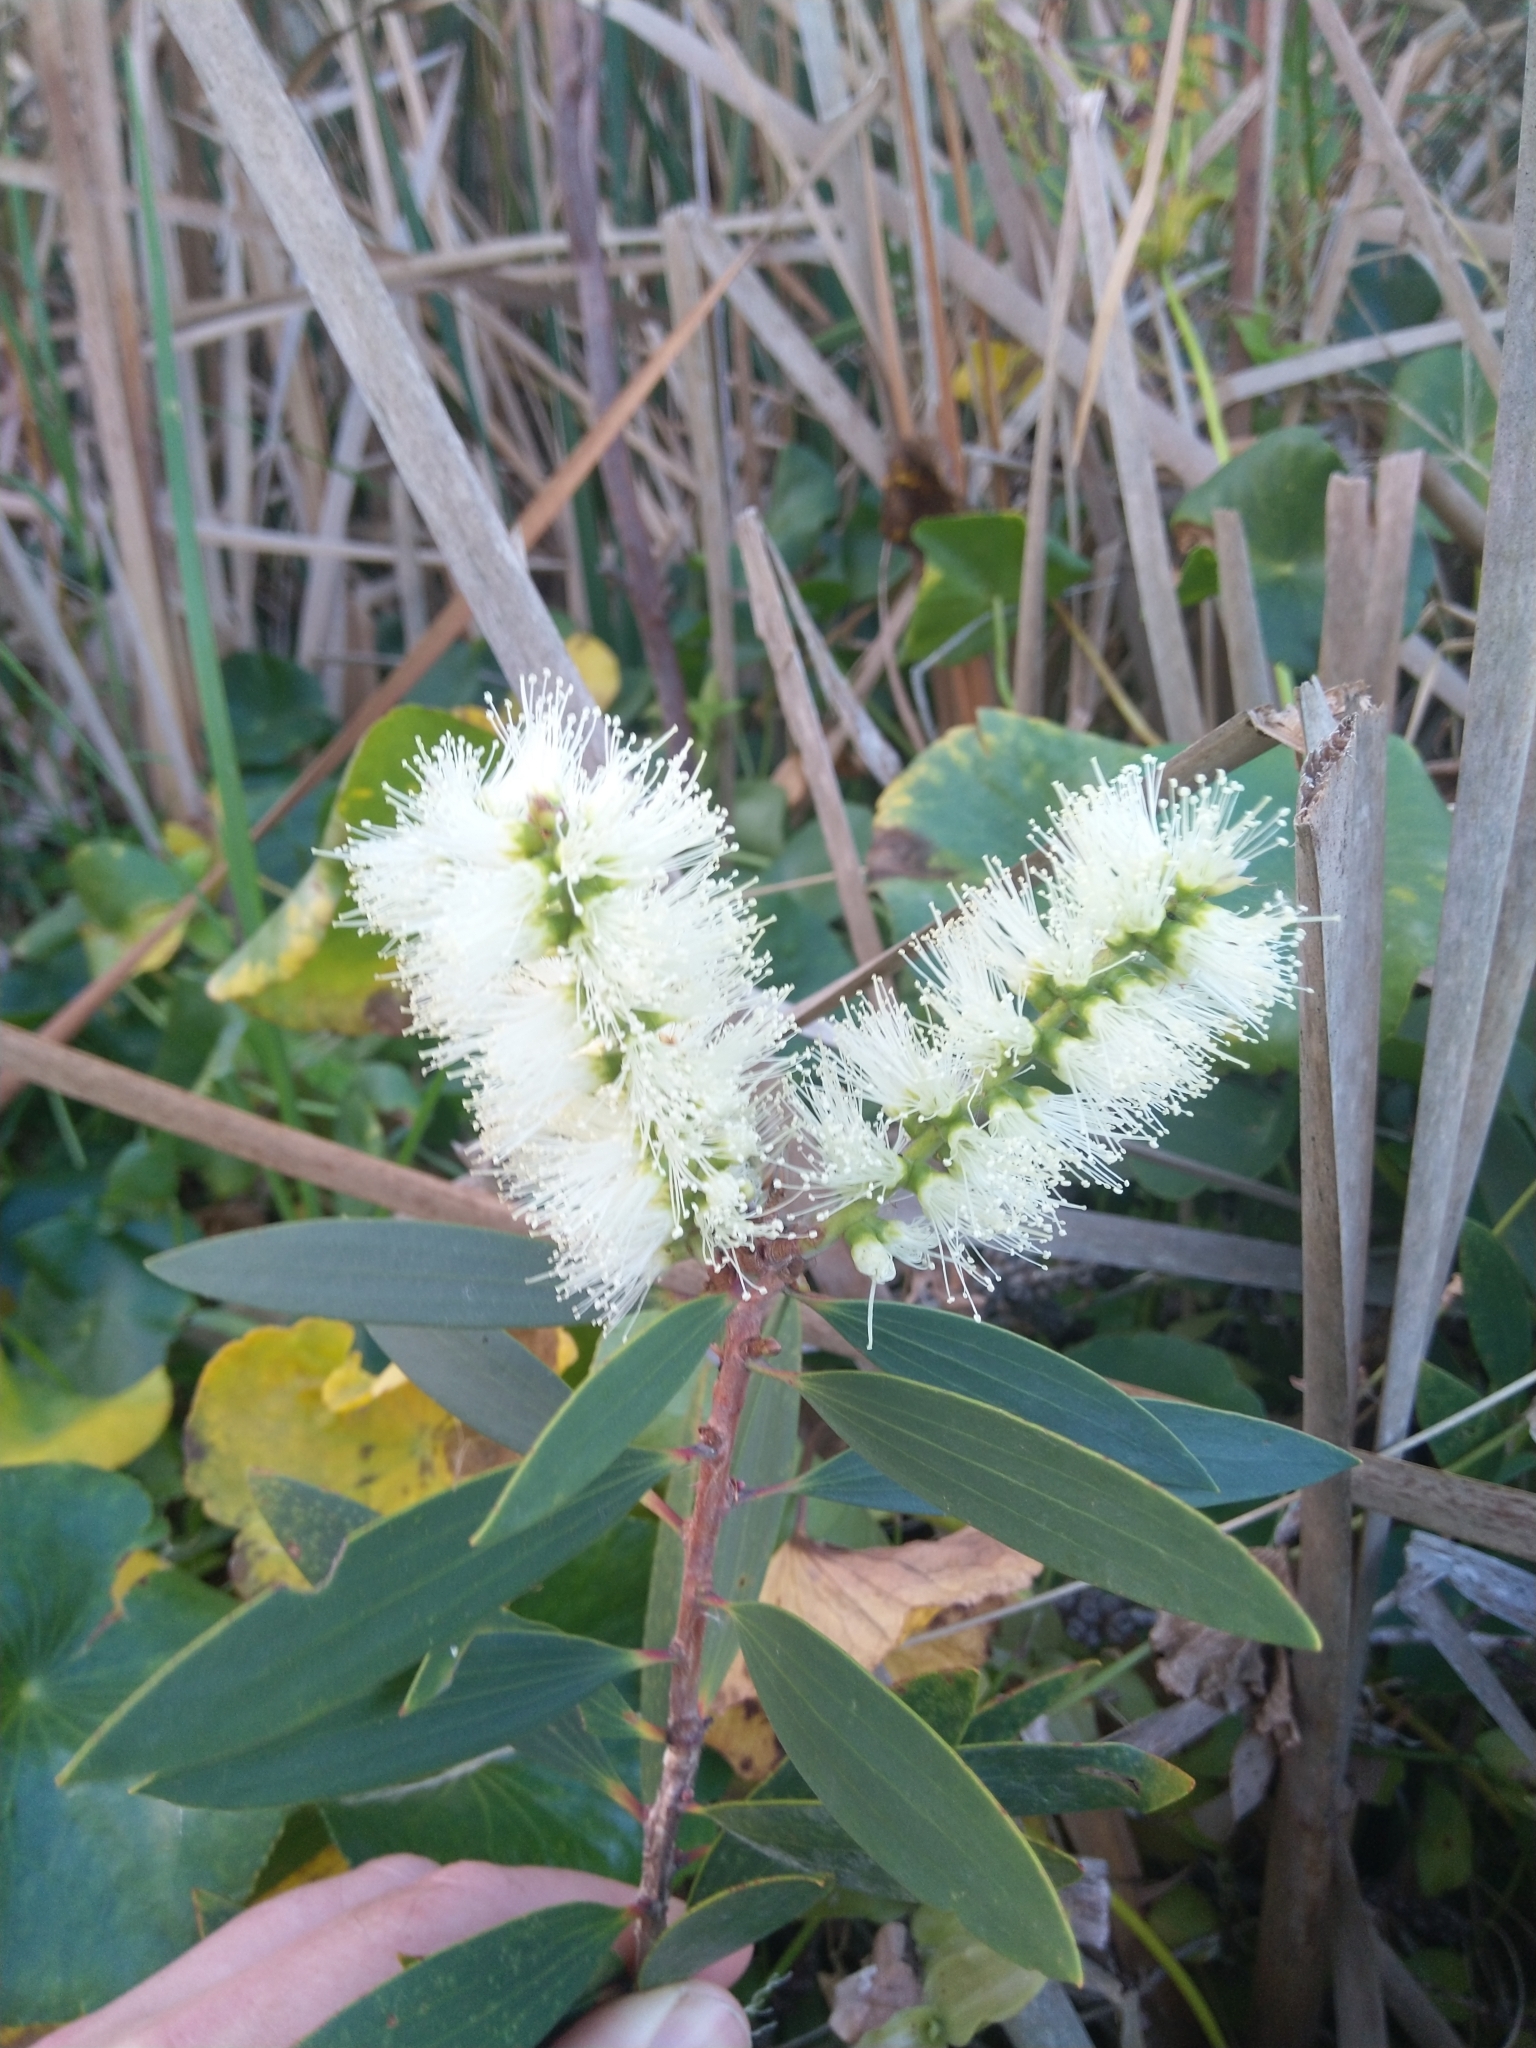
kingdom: Plantae
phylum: Tracheophyta
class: Magnoliopsida
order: Myrtales
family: Myrtaceae
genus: Melaleuca
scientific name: Melaleuca quinquenervia
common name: Punktree
